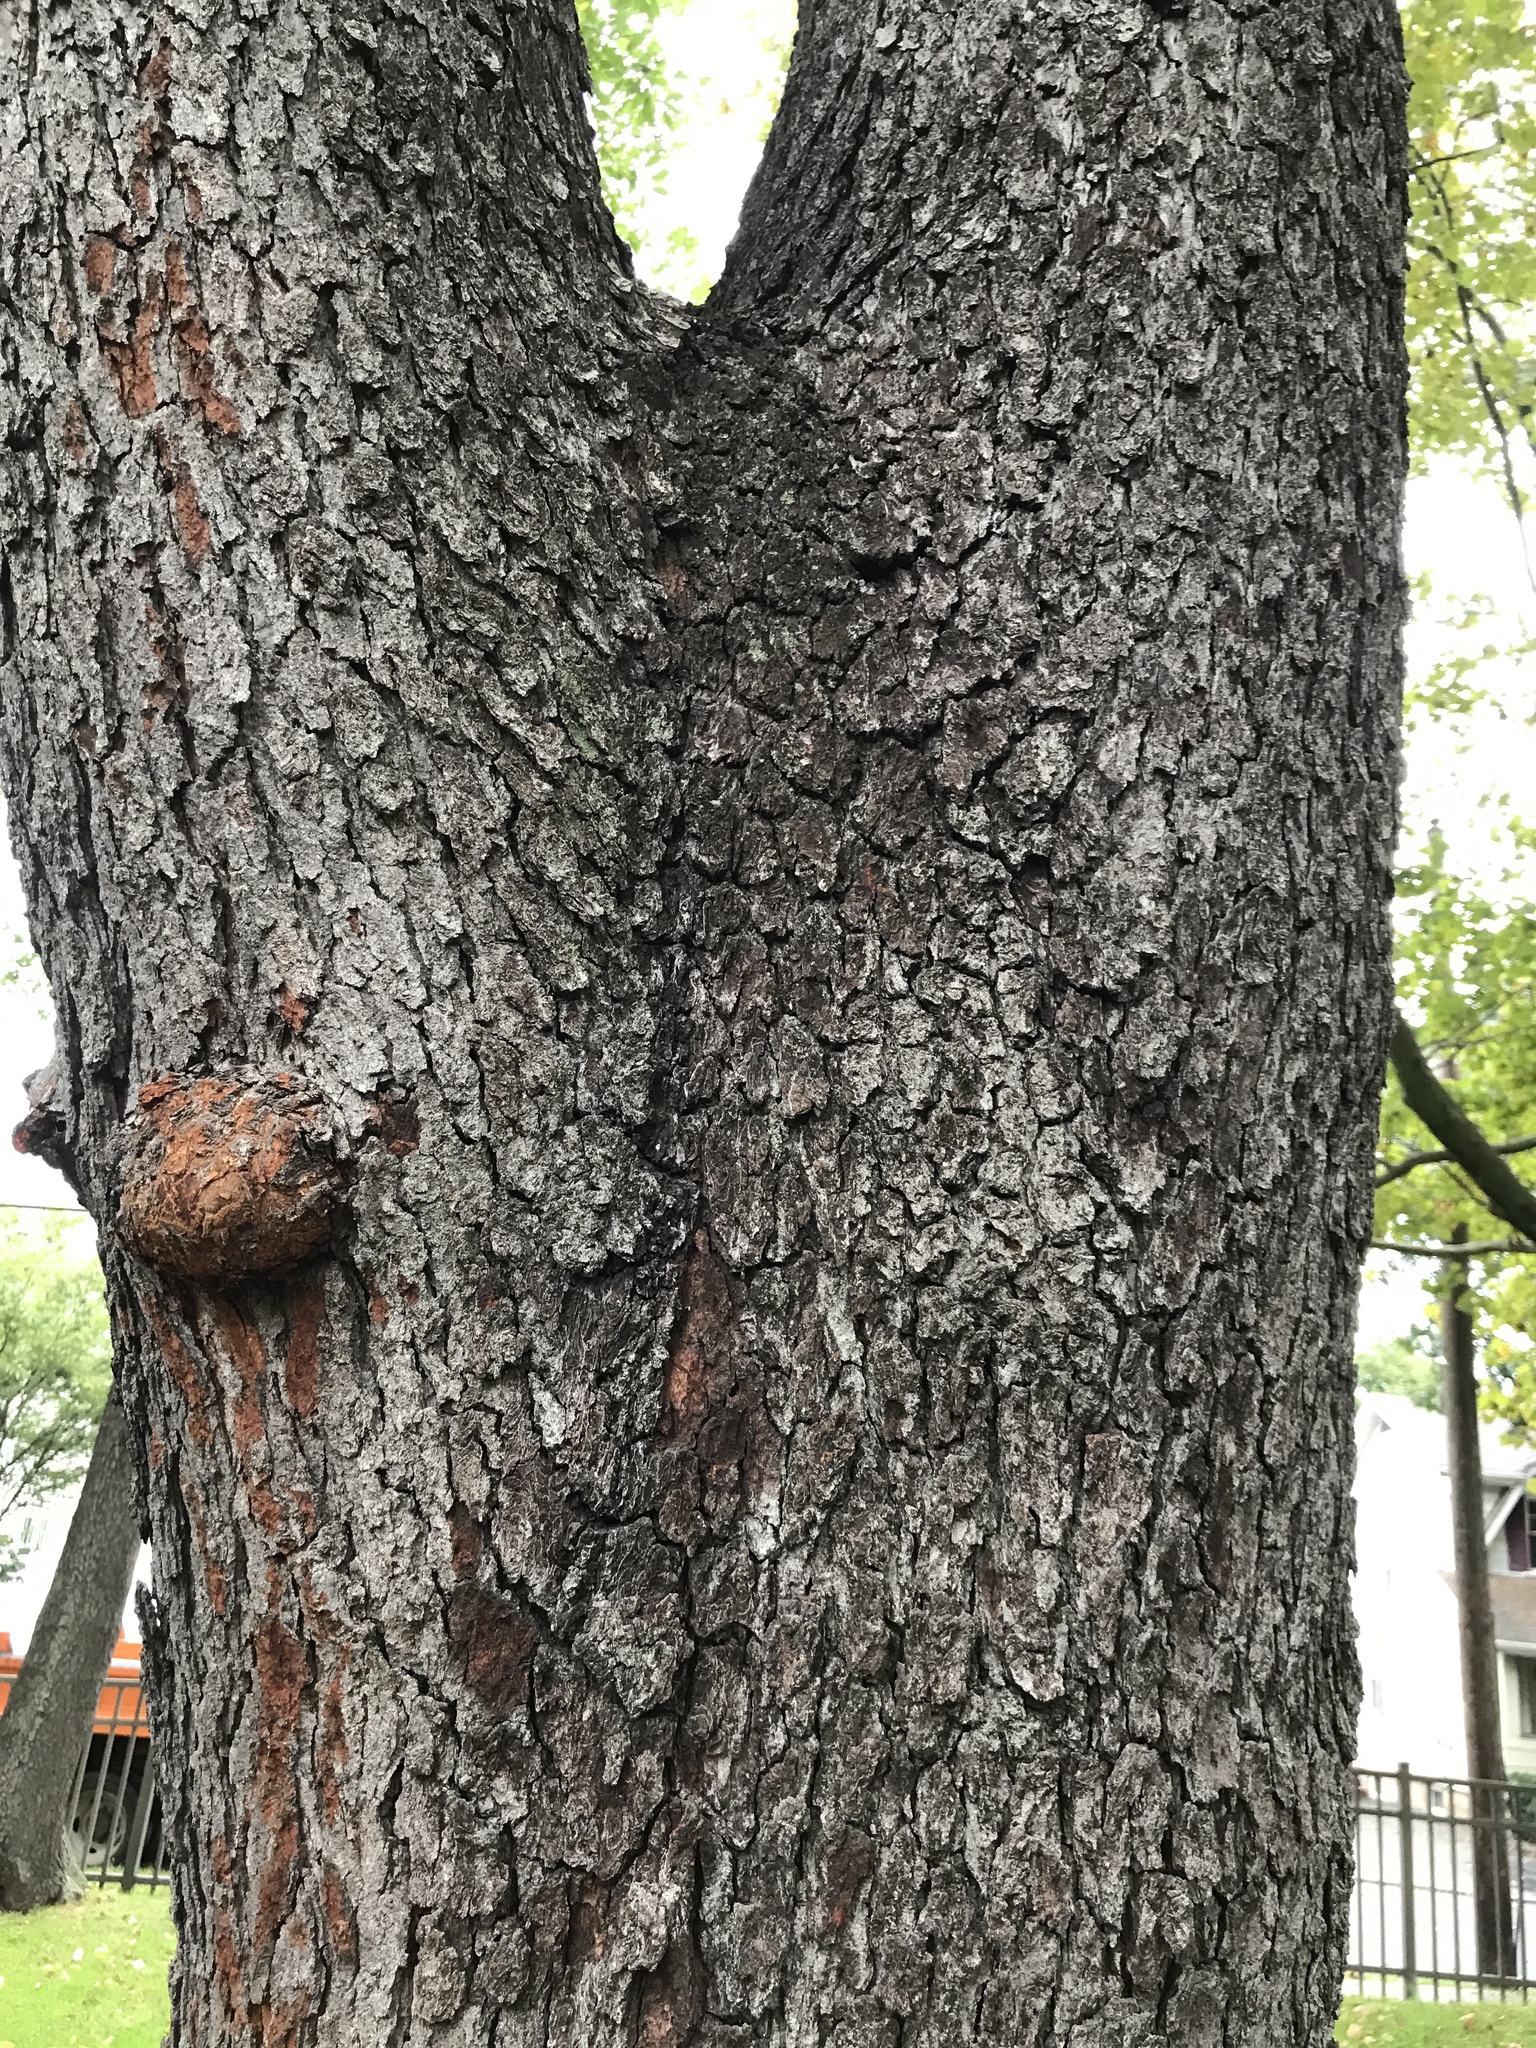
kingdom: Plantae
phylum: Tracheophyta
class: Magnoliopsida
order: Rosales
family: Rosaceae
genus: Prunus
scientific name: Prunus serotina
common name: Black cherry
